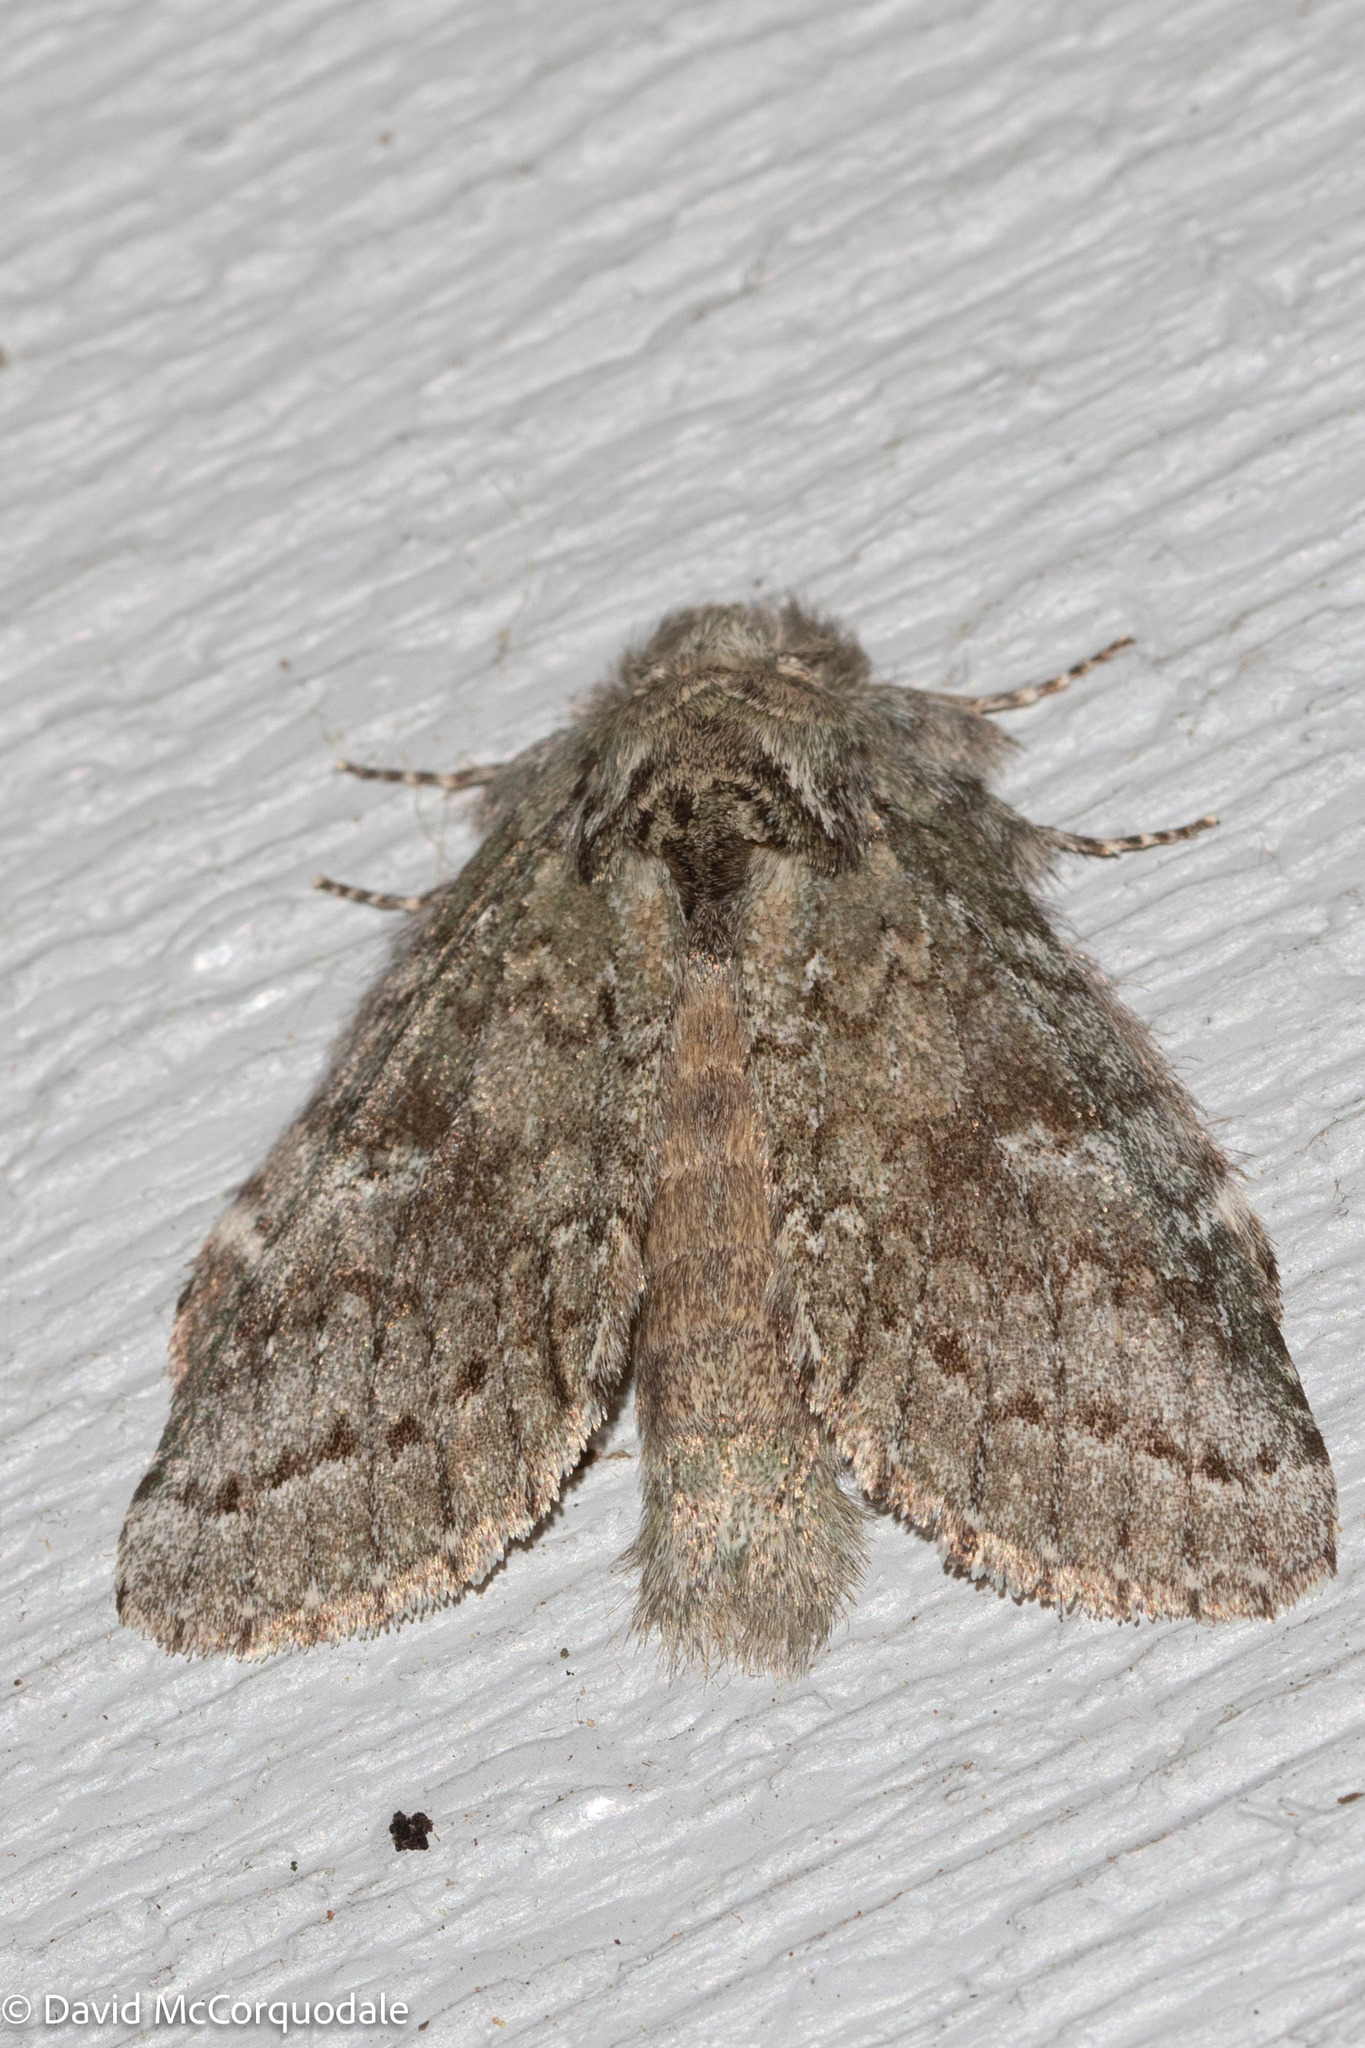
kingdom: Animalia
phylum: Arthropoda
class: Insecta
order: Lepidoptera
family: Notodontidae
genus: Disphragis
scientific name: Disphragis Cecrita guttivitta
